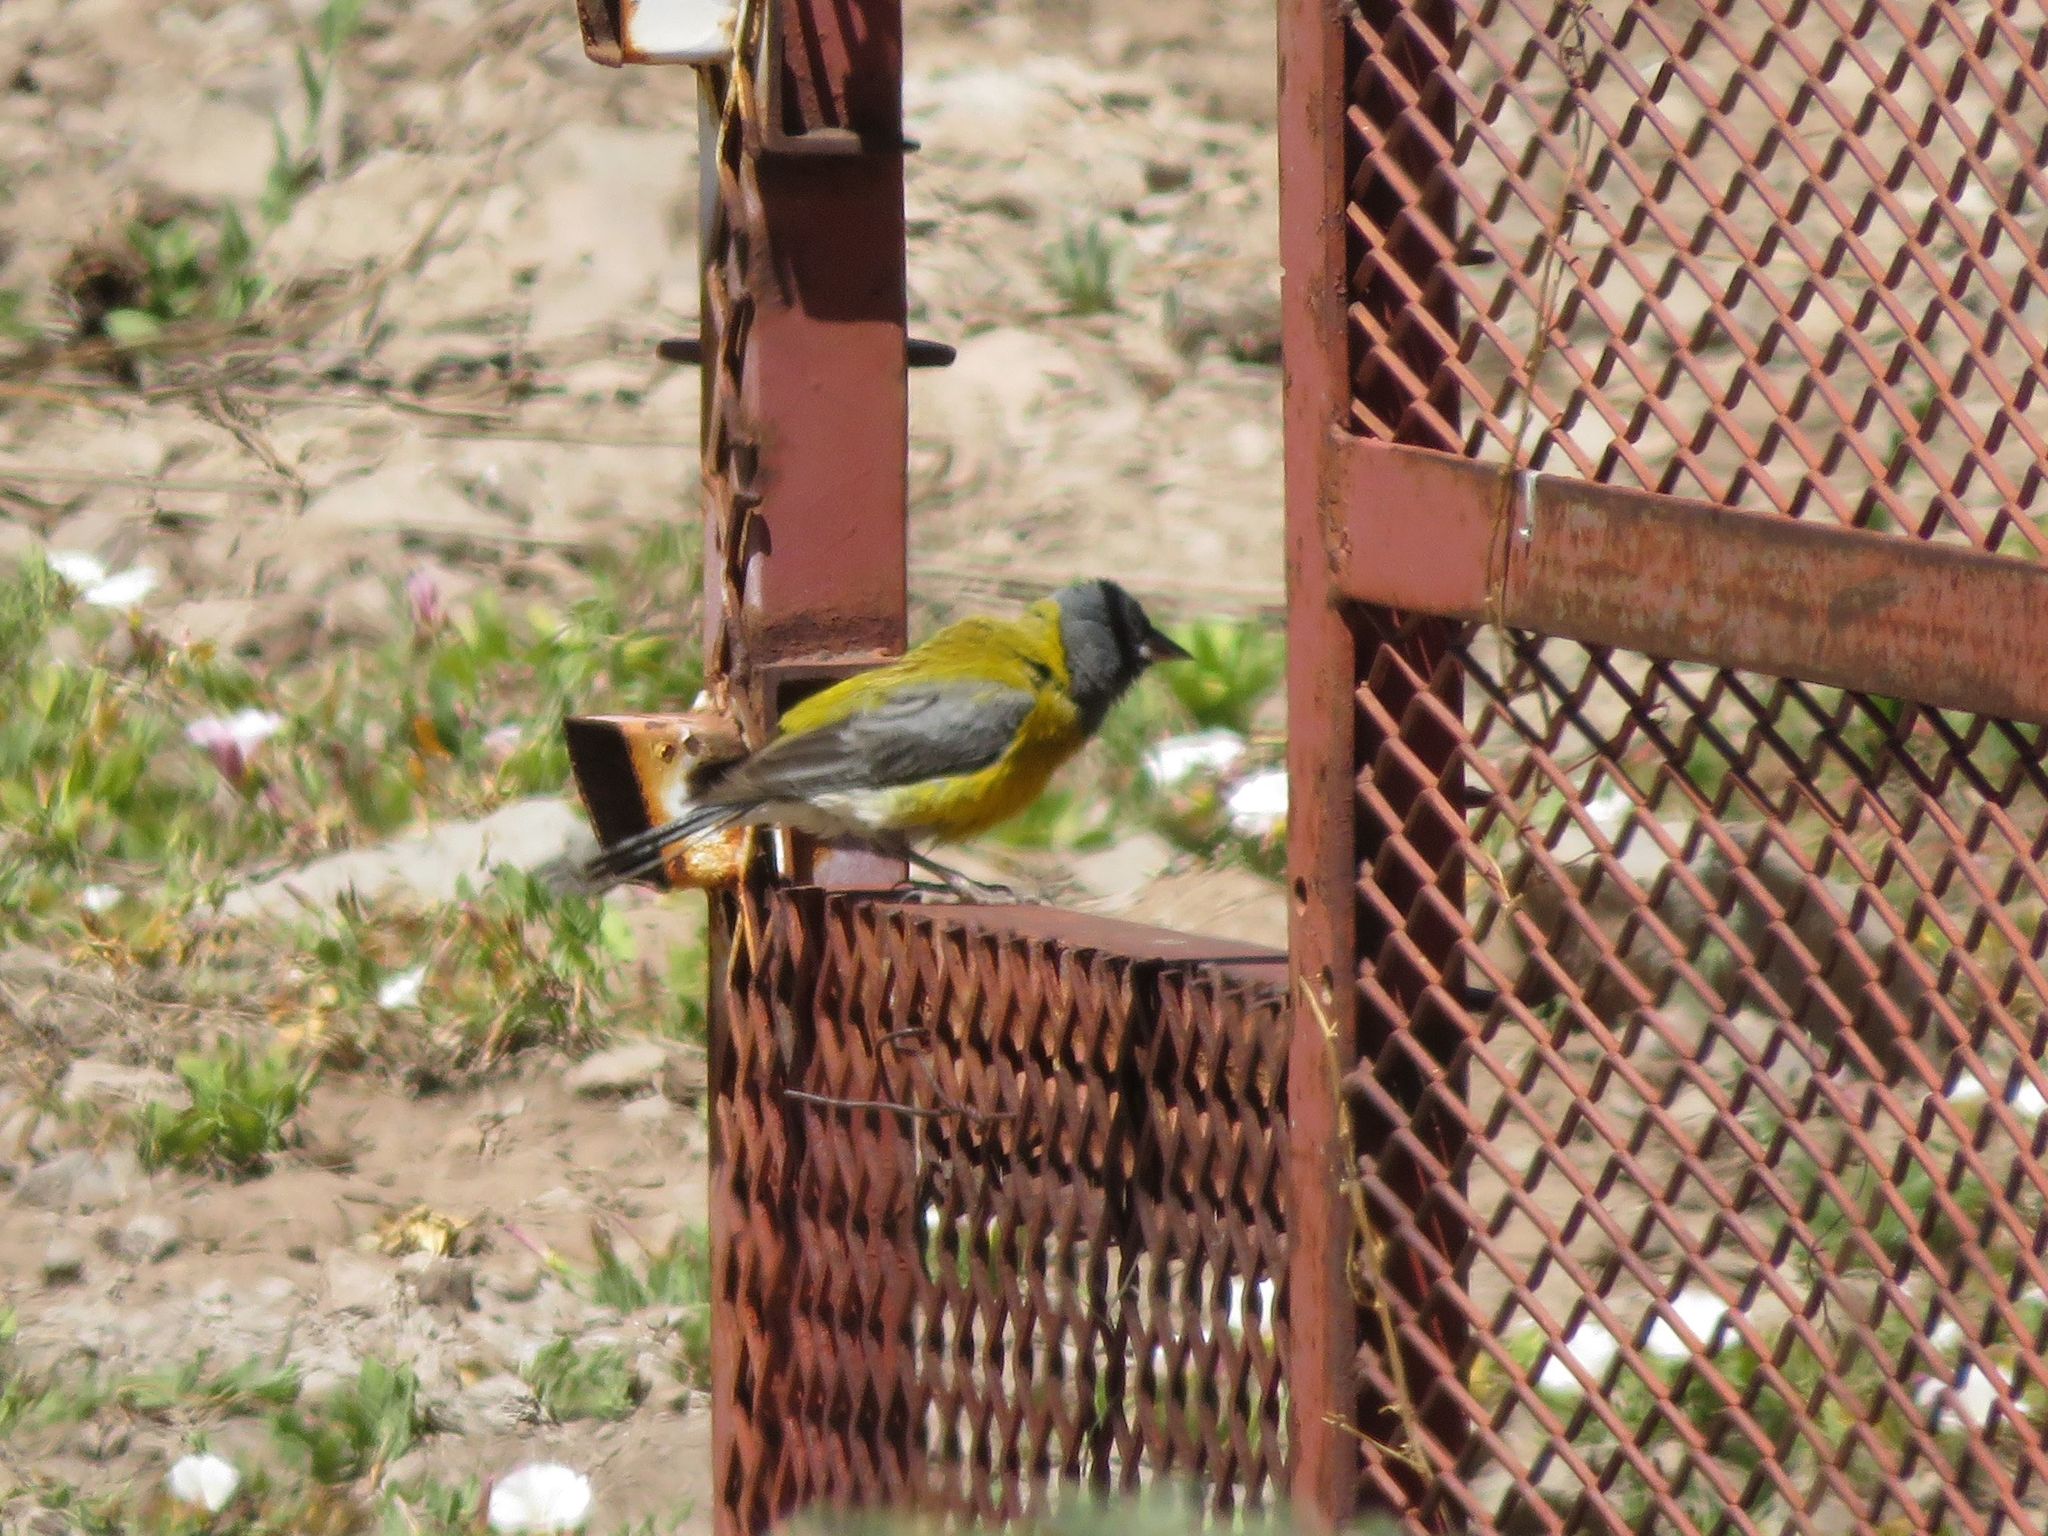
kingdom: Animalia
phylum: Chordata
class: Aves
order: Passeriformes
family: Thraupidae
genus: Phrygilus
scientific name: Phrygilus gayi
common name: Grey-hooded sierra finch
